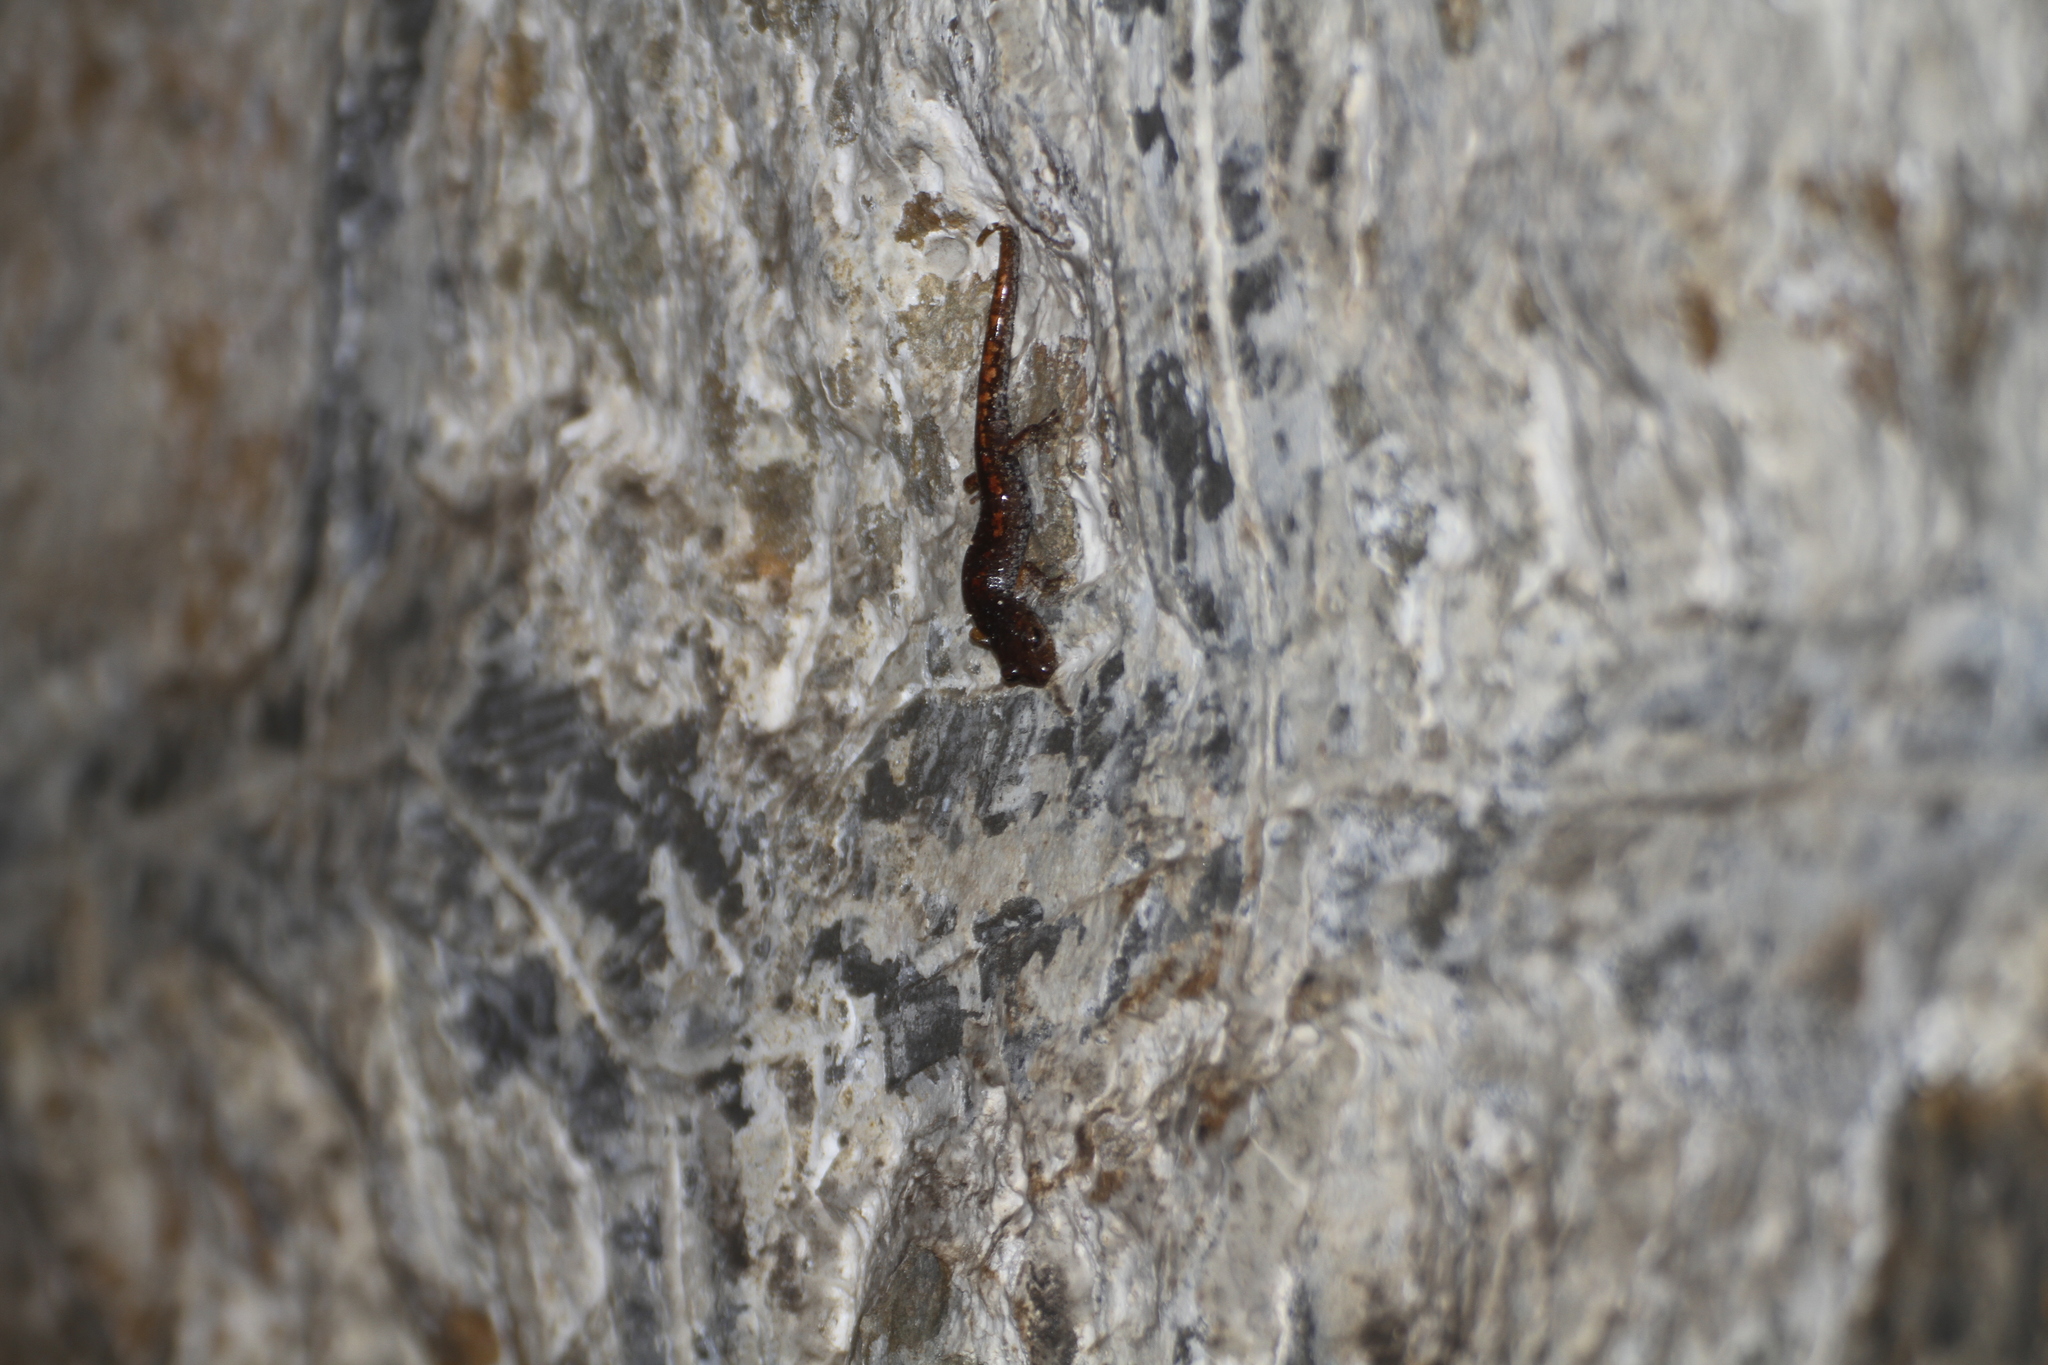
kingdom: Animalia
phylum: Chordata
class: Amphibia
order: Caudata
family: Plethodontidae
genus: Speleomantes
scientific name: Speleomantes strinatii
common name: French cave salamander
